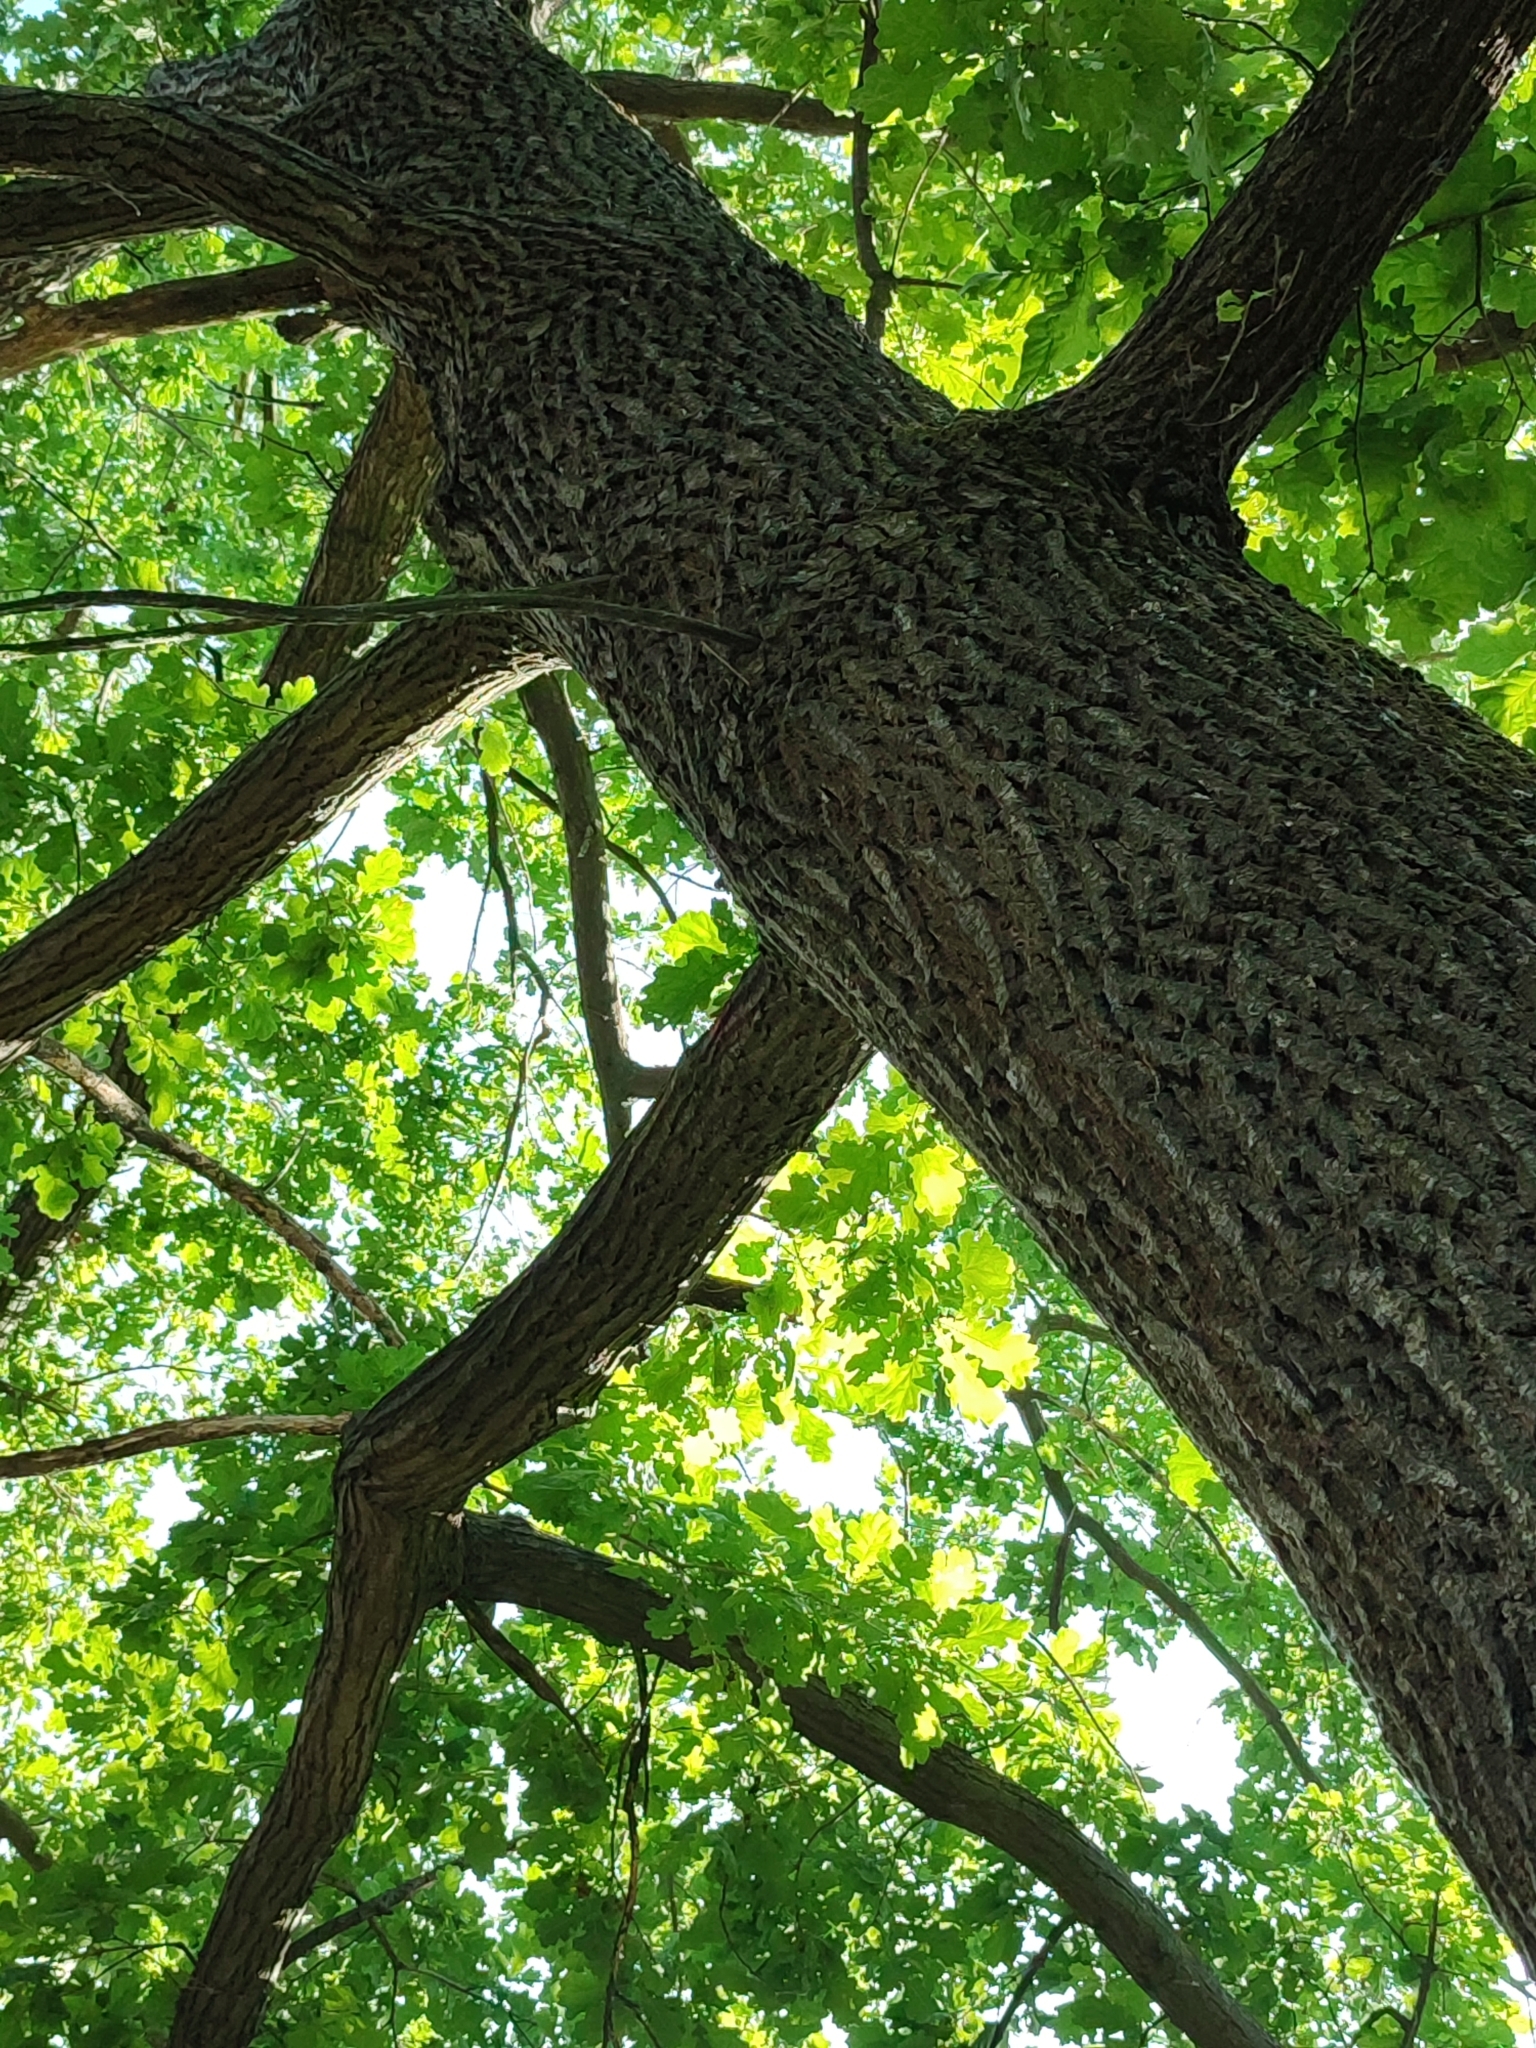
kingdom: Plantae
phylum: Tracheophyta
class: Magnoliopsida
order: Fagales
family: Fagaceae
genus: Quercus
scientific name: Quercus robur
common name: Pedunculate oak
